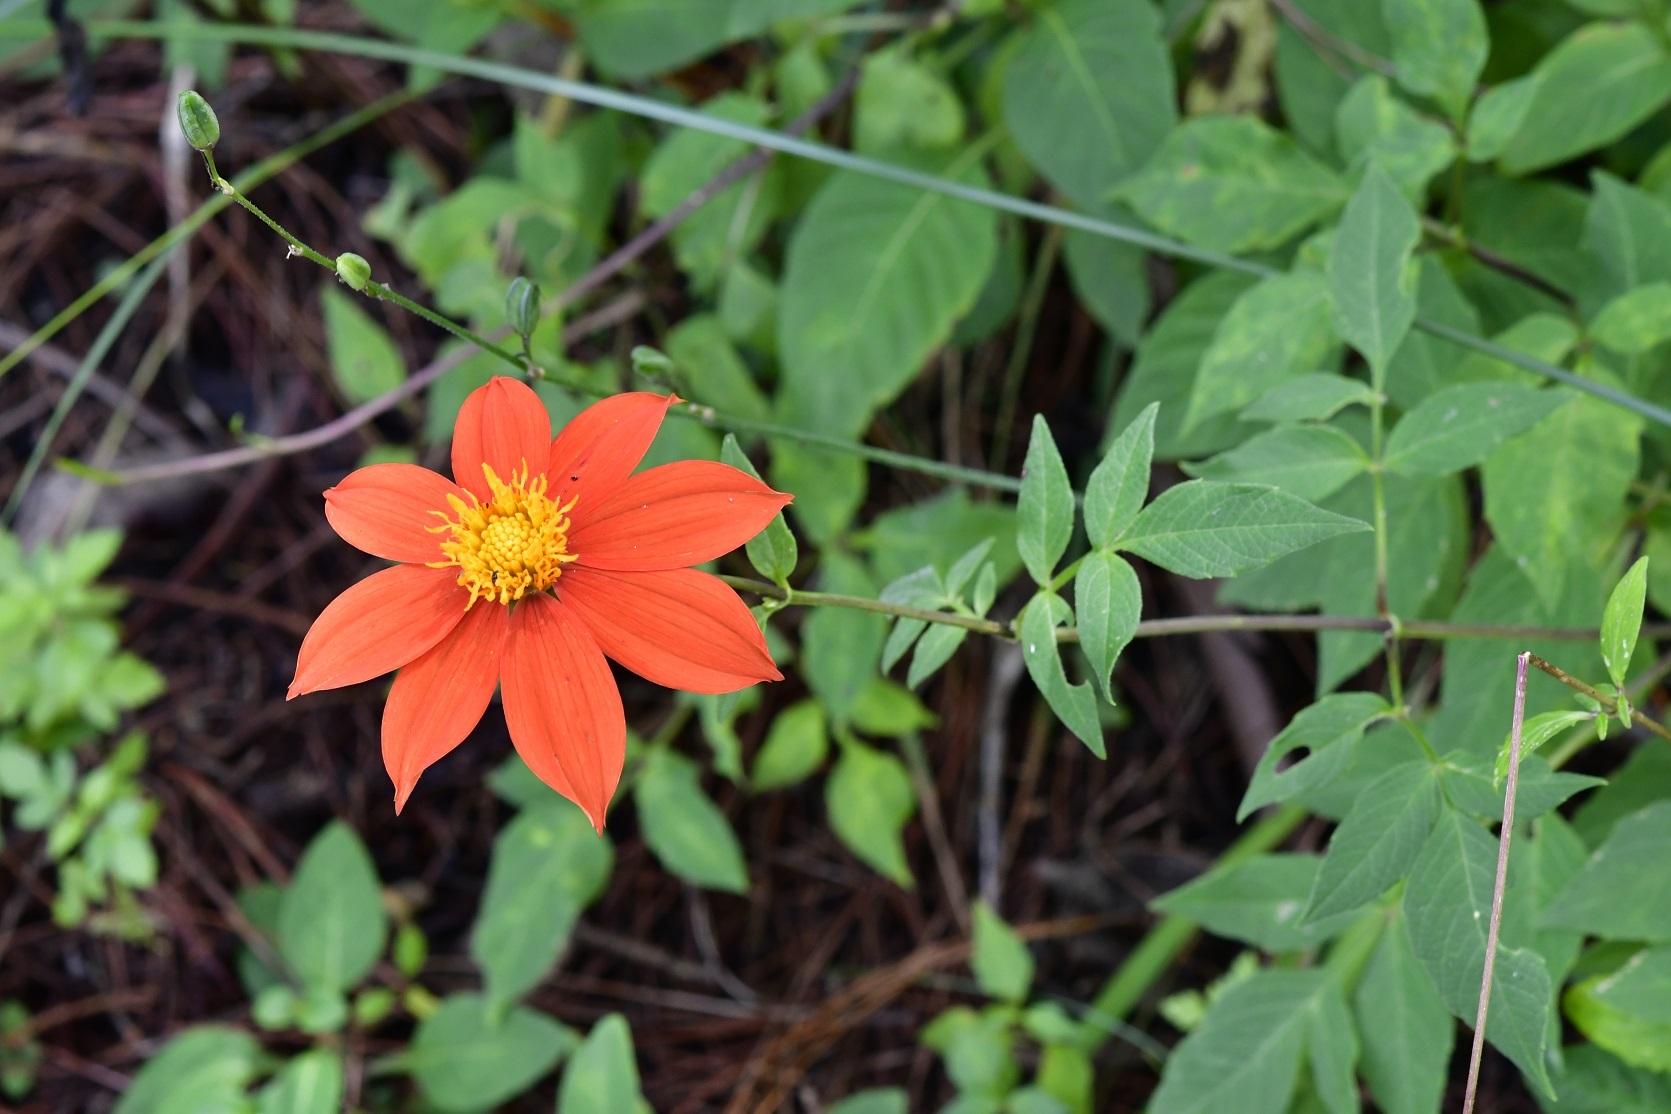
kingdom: Plantae
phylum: Tracheophyta
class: Magnoliopsida
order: Asterales
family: Asteraceae
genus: Dahlia
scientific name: Dahlia coccinea
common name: Red dahlia
